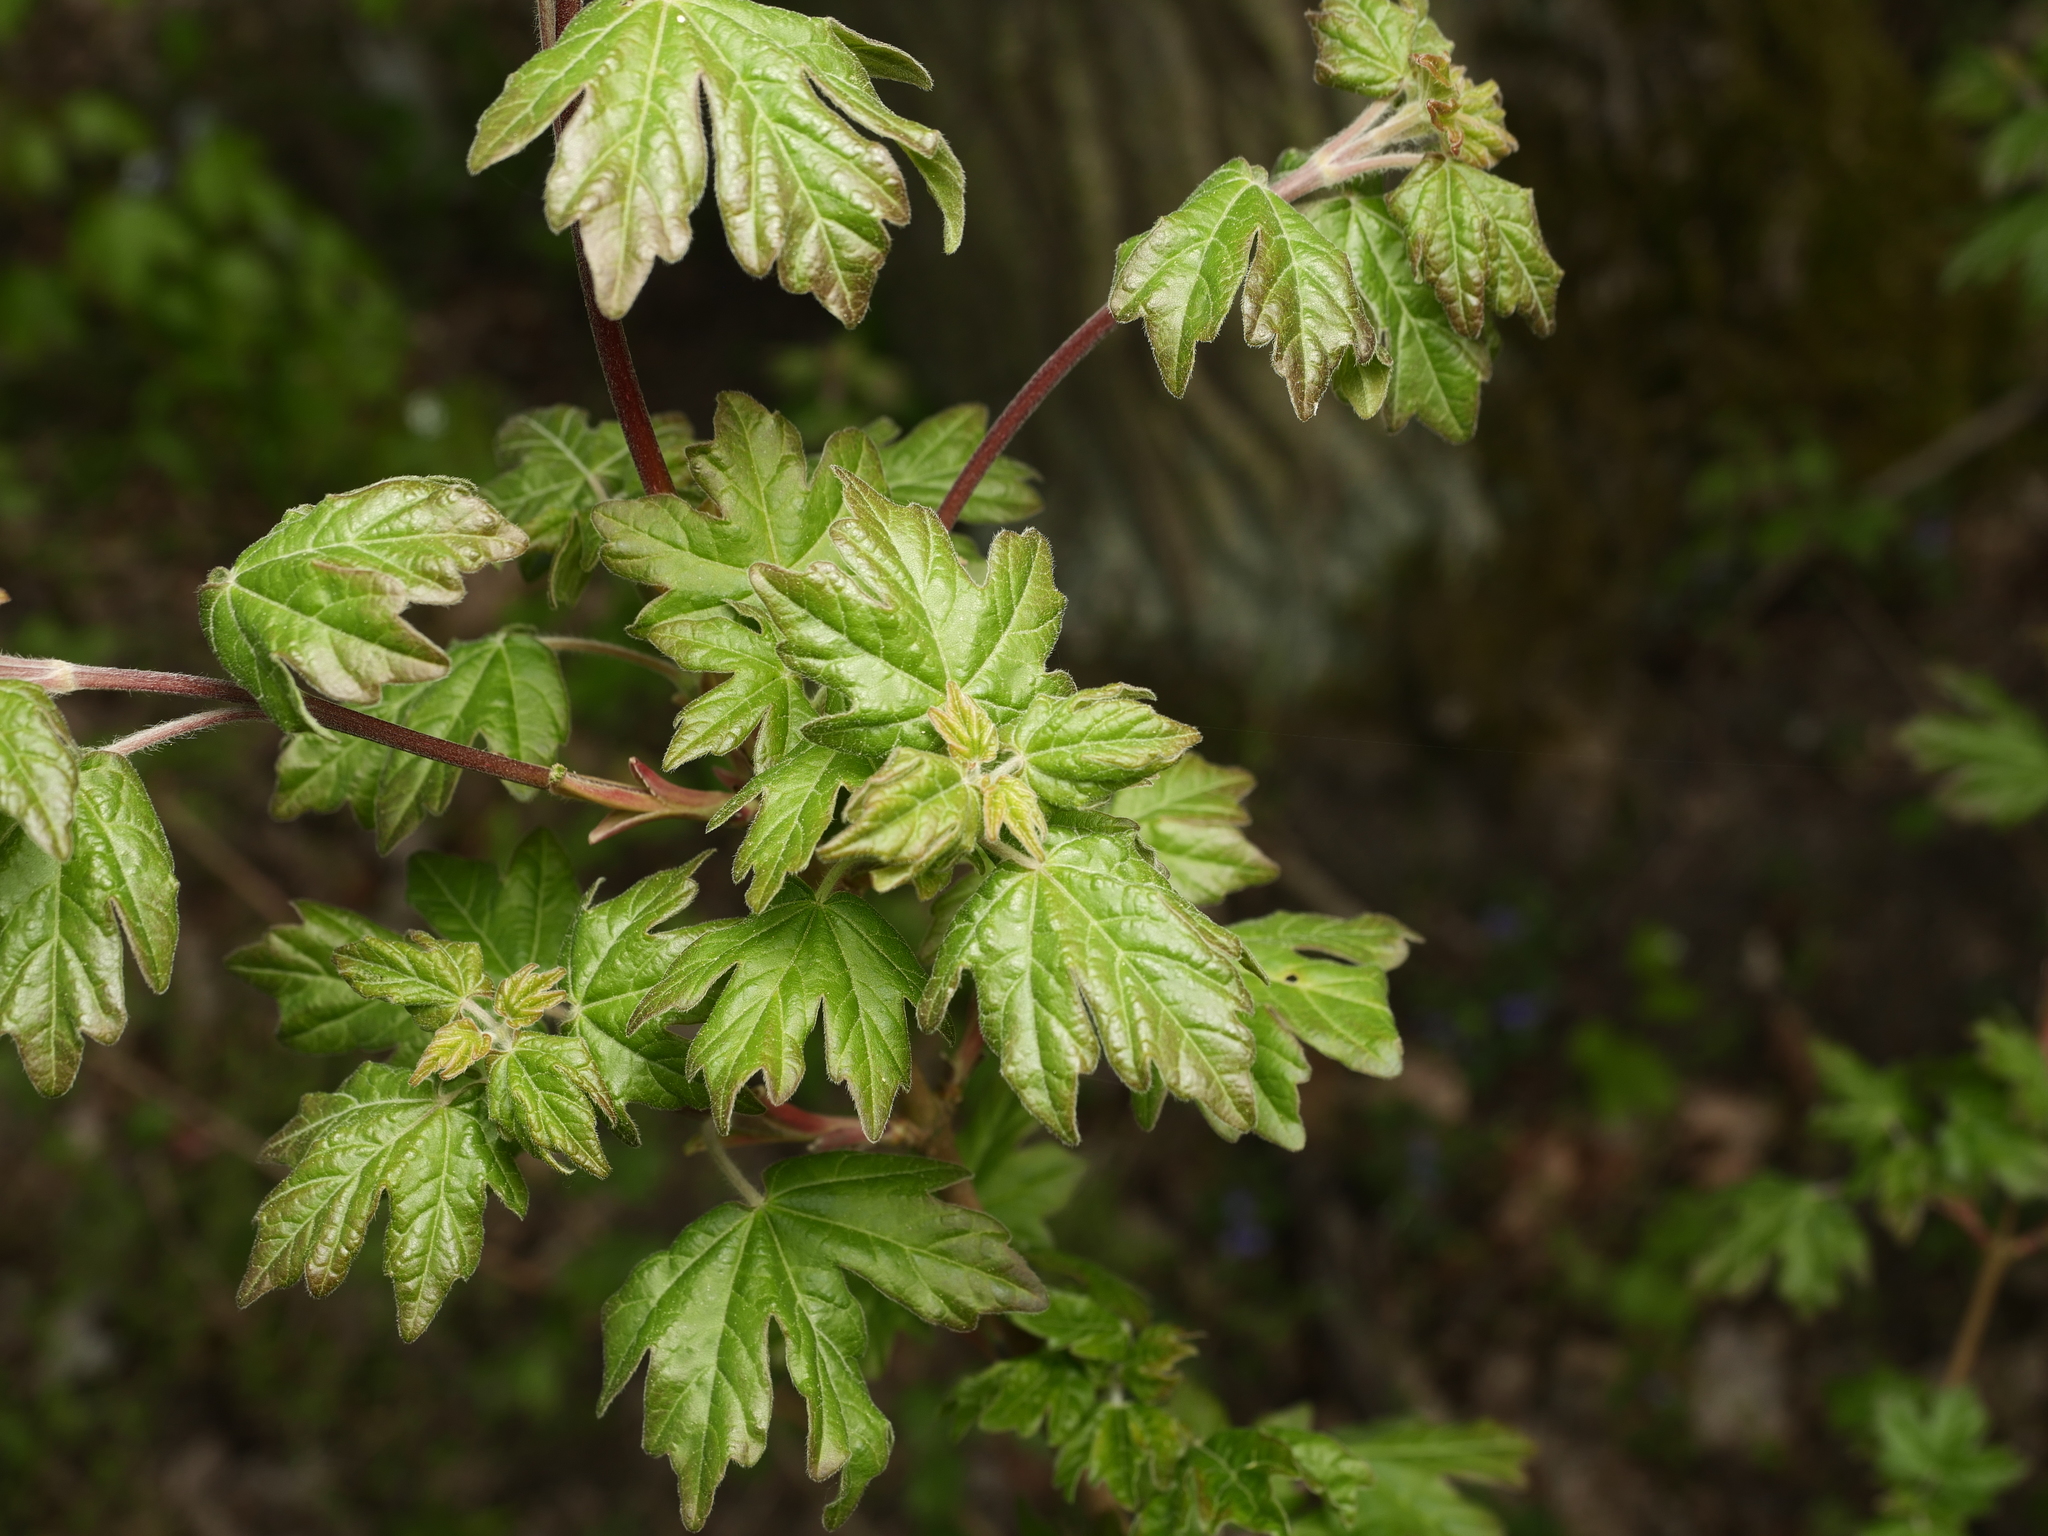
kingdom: Plantae
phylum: Tracheophyta
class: Magnoliopsida
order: Sapindales
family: Sapindaceae
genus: Acer
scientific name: Acer campestre
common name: Field maple
